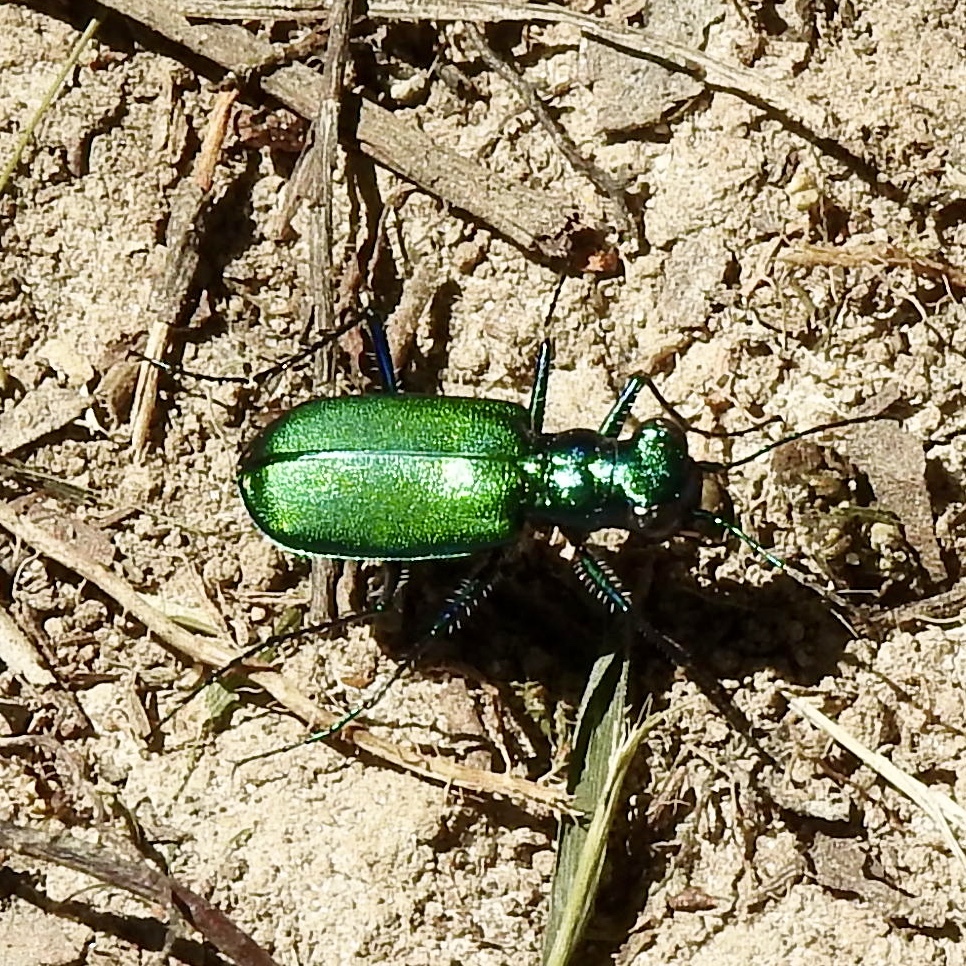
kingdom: Animalia
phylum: Arthropoda
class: Insecta
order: Coleoptera
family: Carabidae
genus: Cicindela
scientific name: Cicindela sexguttata
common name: Six-spotted tiger beetle
